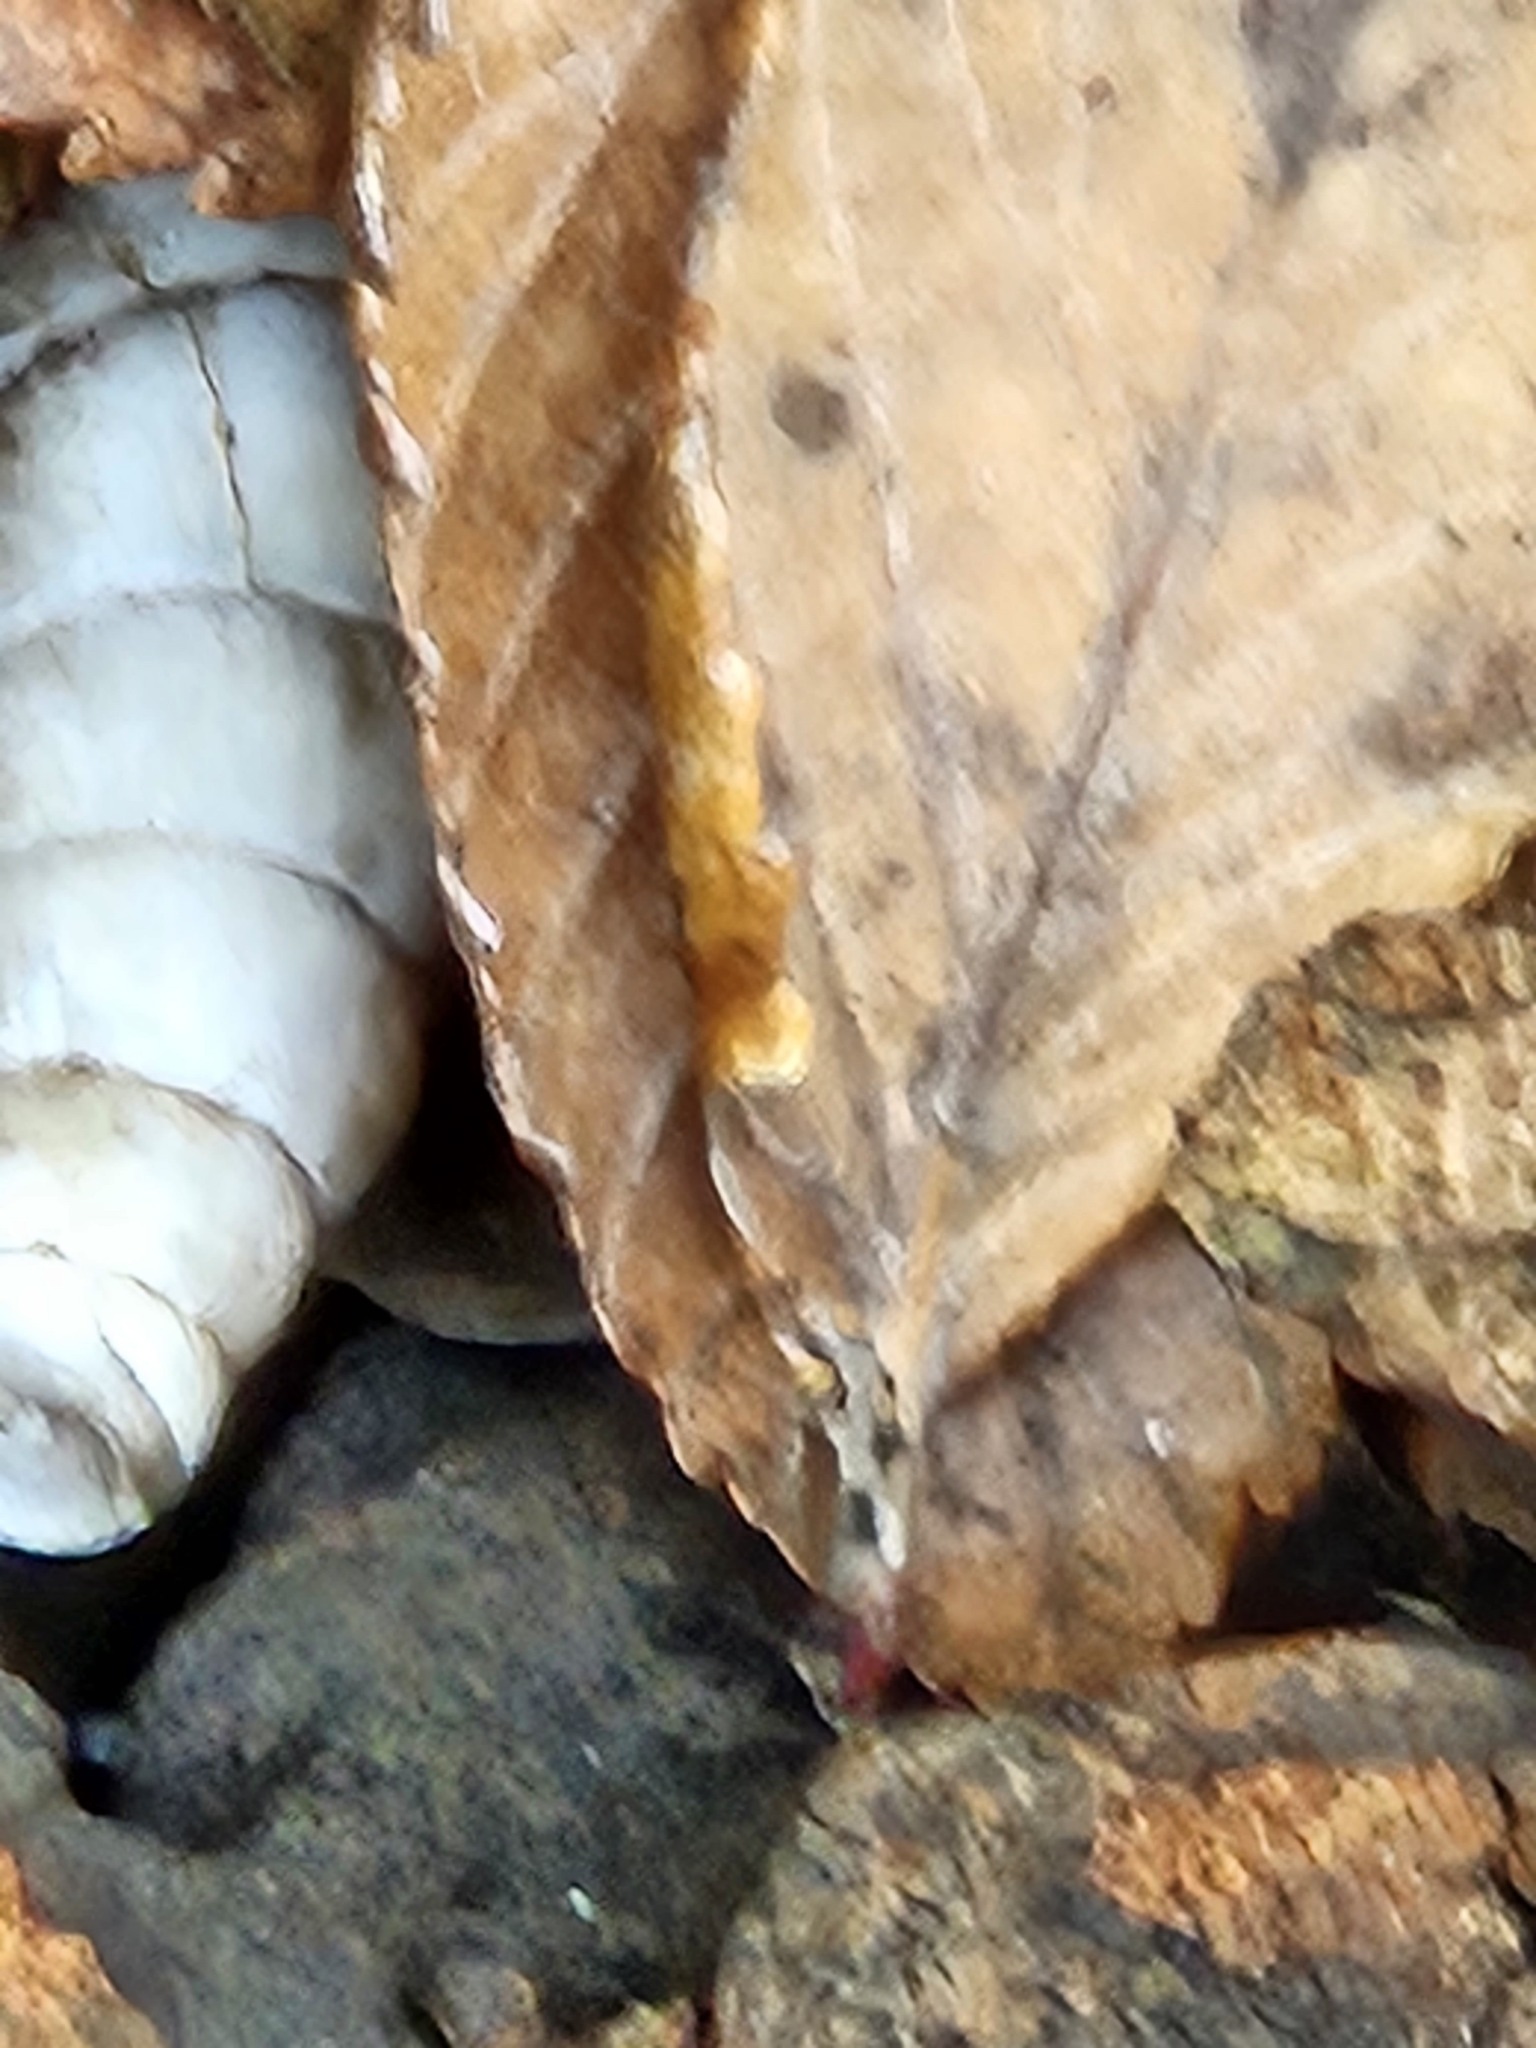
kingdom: Animalia
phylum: Mollusca
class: Gastropoda
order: Stylommatophora
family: Achatinidae
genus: Rumina
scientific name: Rumina decollata
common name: Decollate snail
